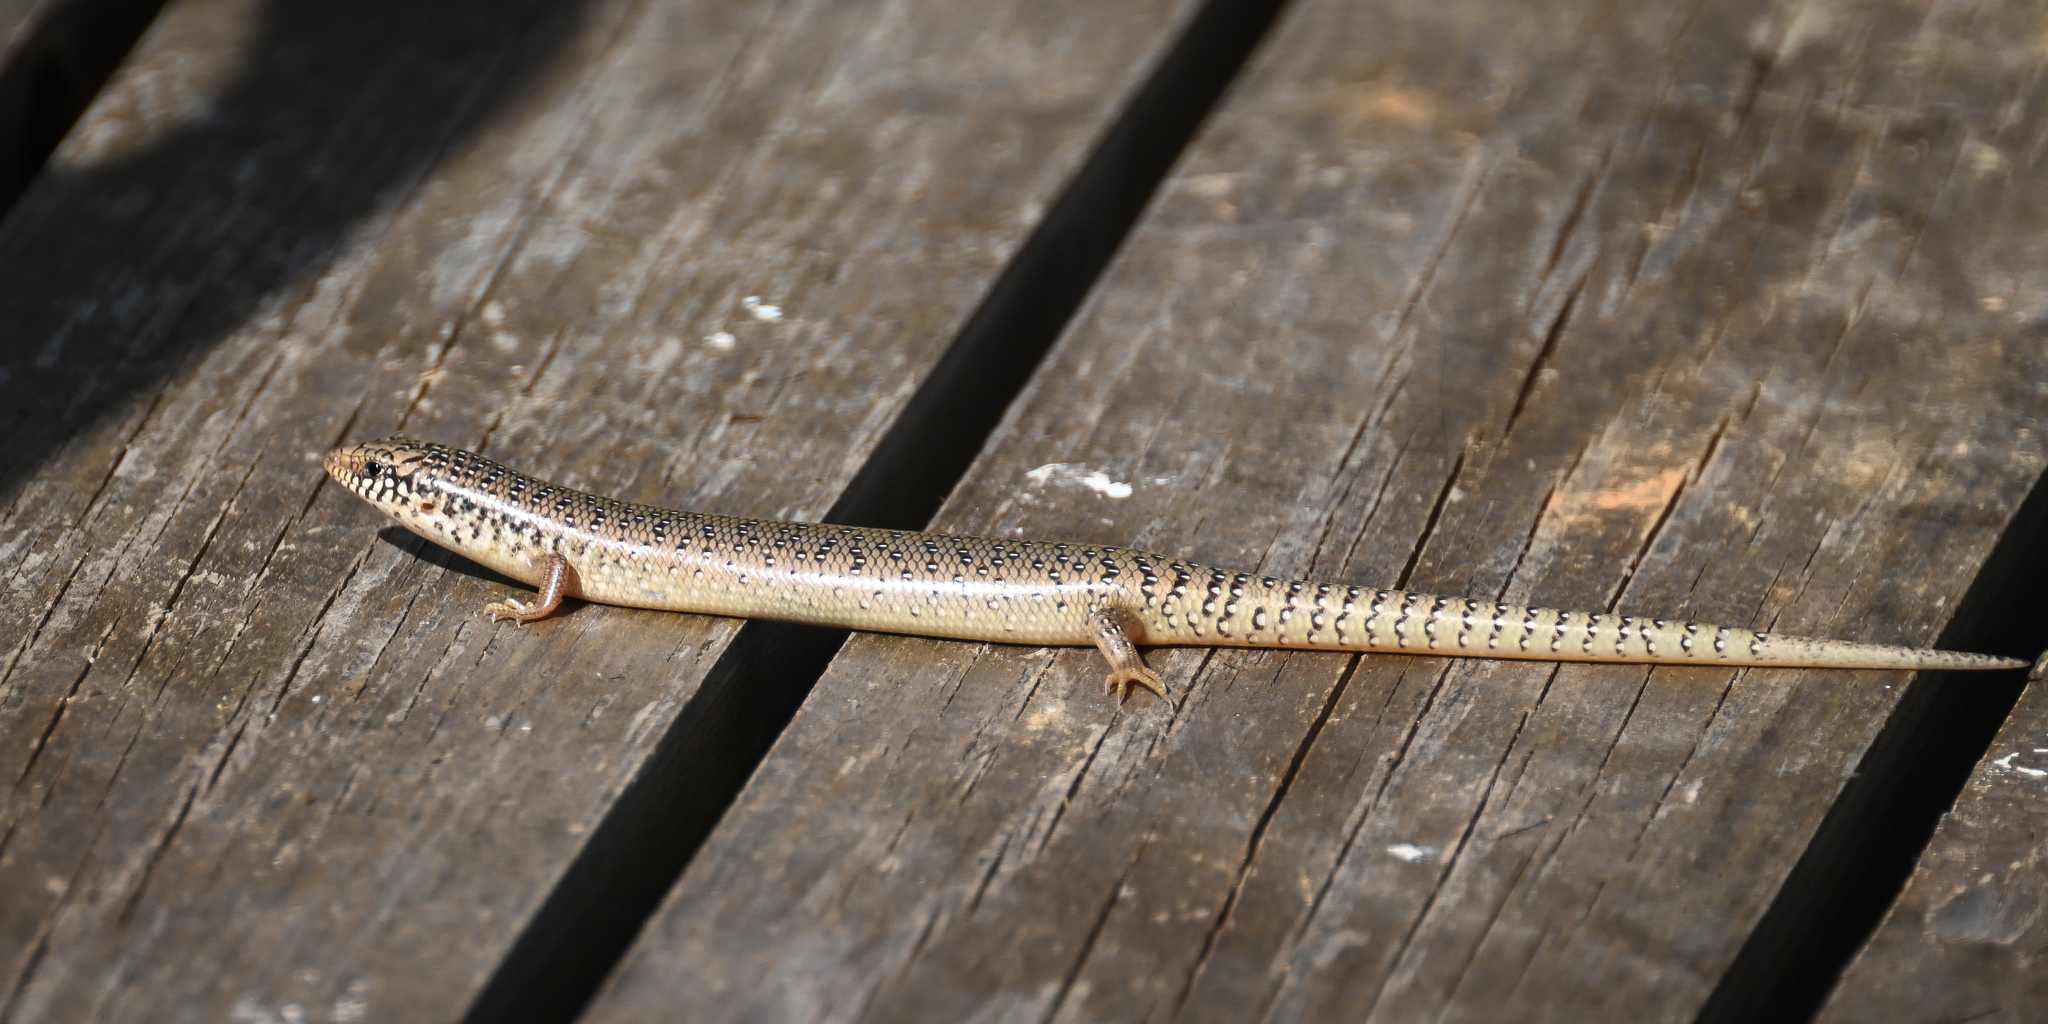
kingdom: Animalia
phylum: Chordata
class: Squamata
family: Scincidae
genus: Chalcides
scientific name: Chalcides ocellatus
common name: Ocellated skink
